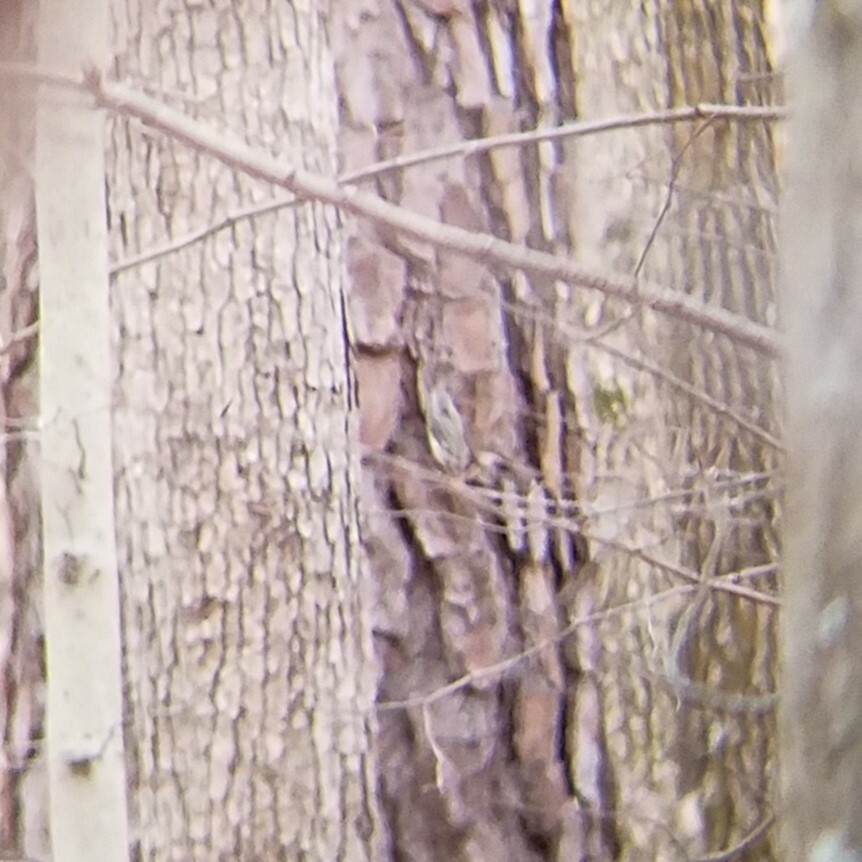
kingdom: Animalia
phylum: Chordata
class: Aves
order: Passeriformes
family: Certhiidae
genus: Certhia
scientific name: Certhia americana
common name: Brown creeper
